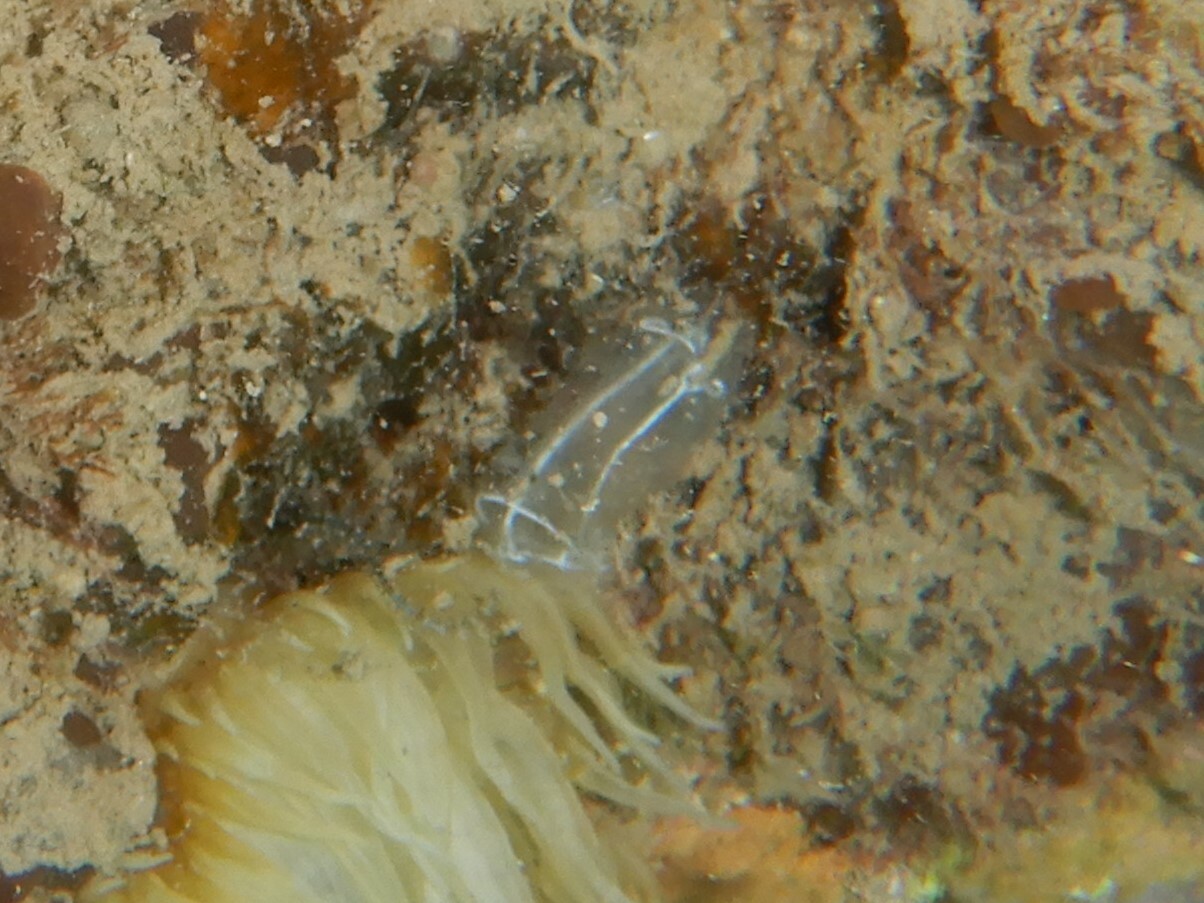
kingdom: Animalia
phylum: Chordata
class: Ascidiacea
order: Aplousobranchia
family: Clavelinidae
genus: Clavelina
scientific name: Clavelina lepadiformis
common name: Light bulb tunicate
